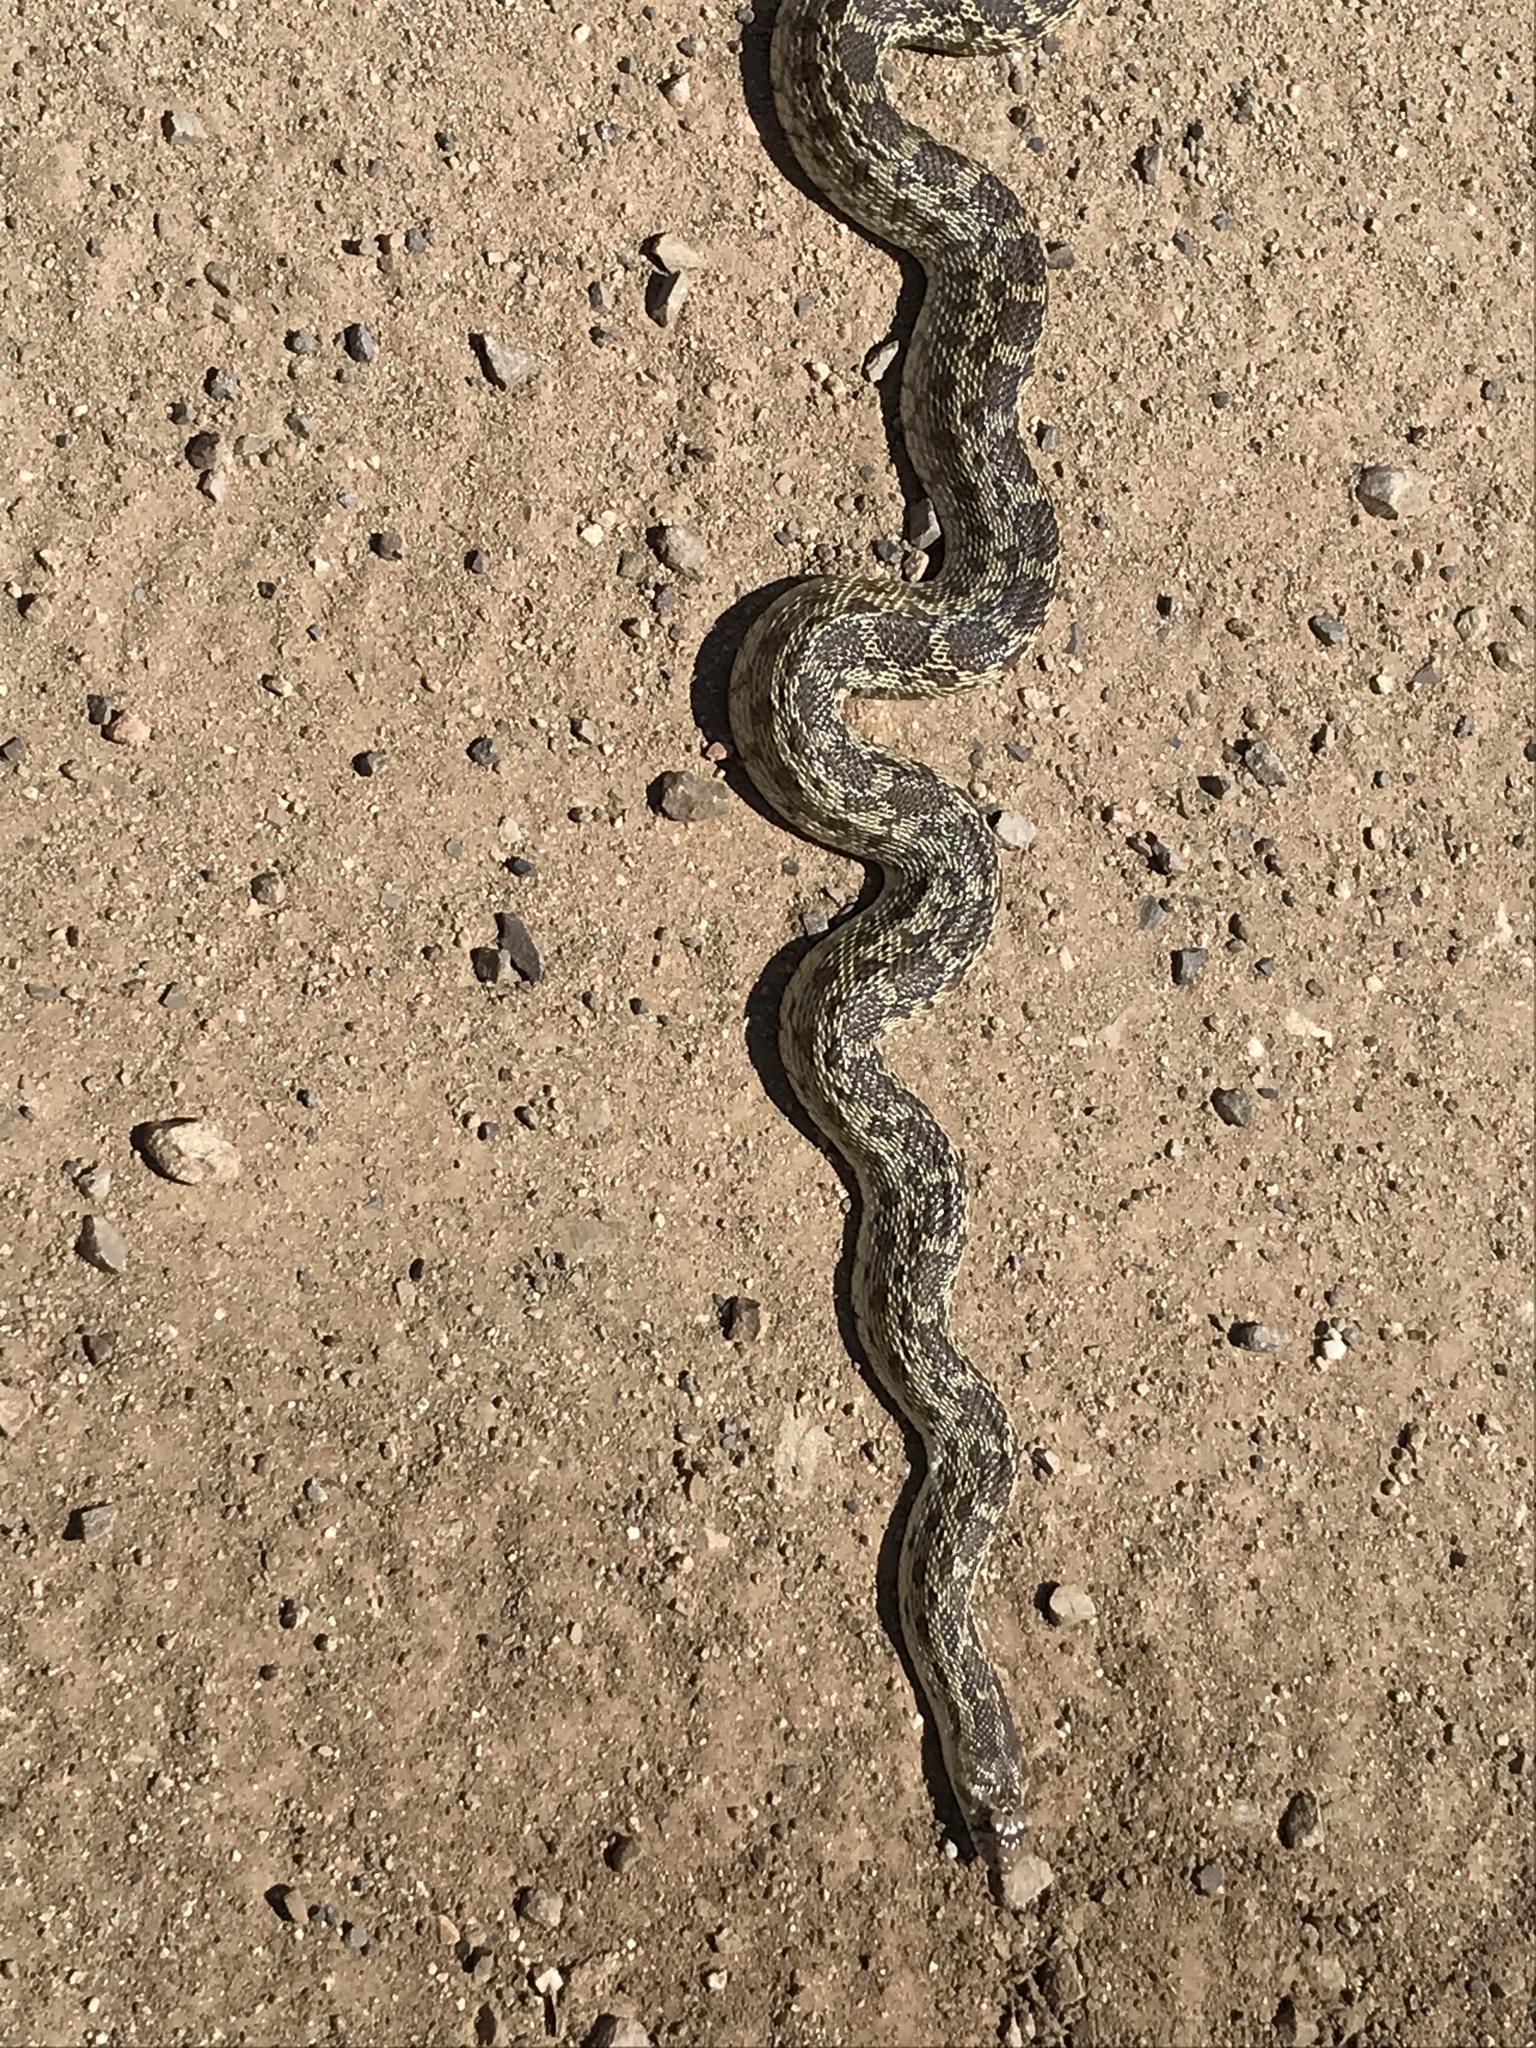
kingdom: Animalia
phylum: Chordata
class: Squamata
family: Colubridae
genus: Pituophis
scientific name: Pituophis catenifer
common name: Gopher snake
